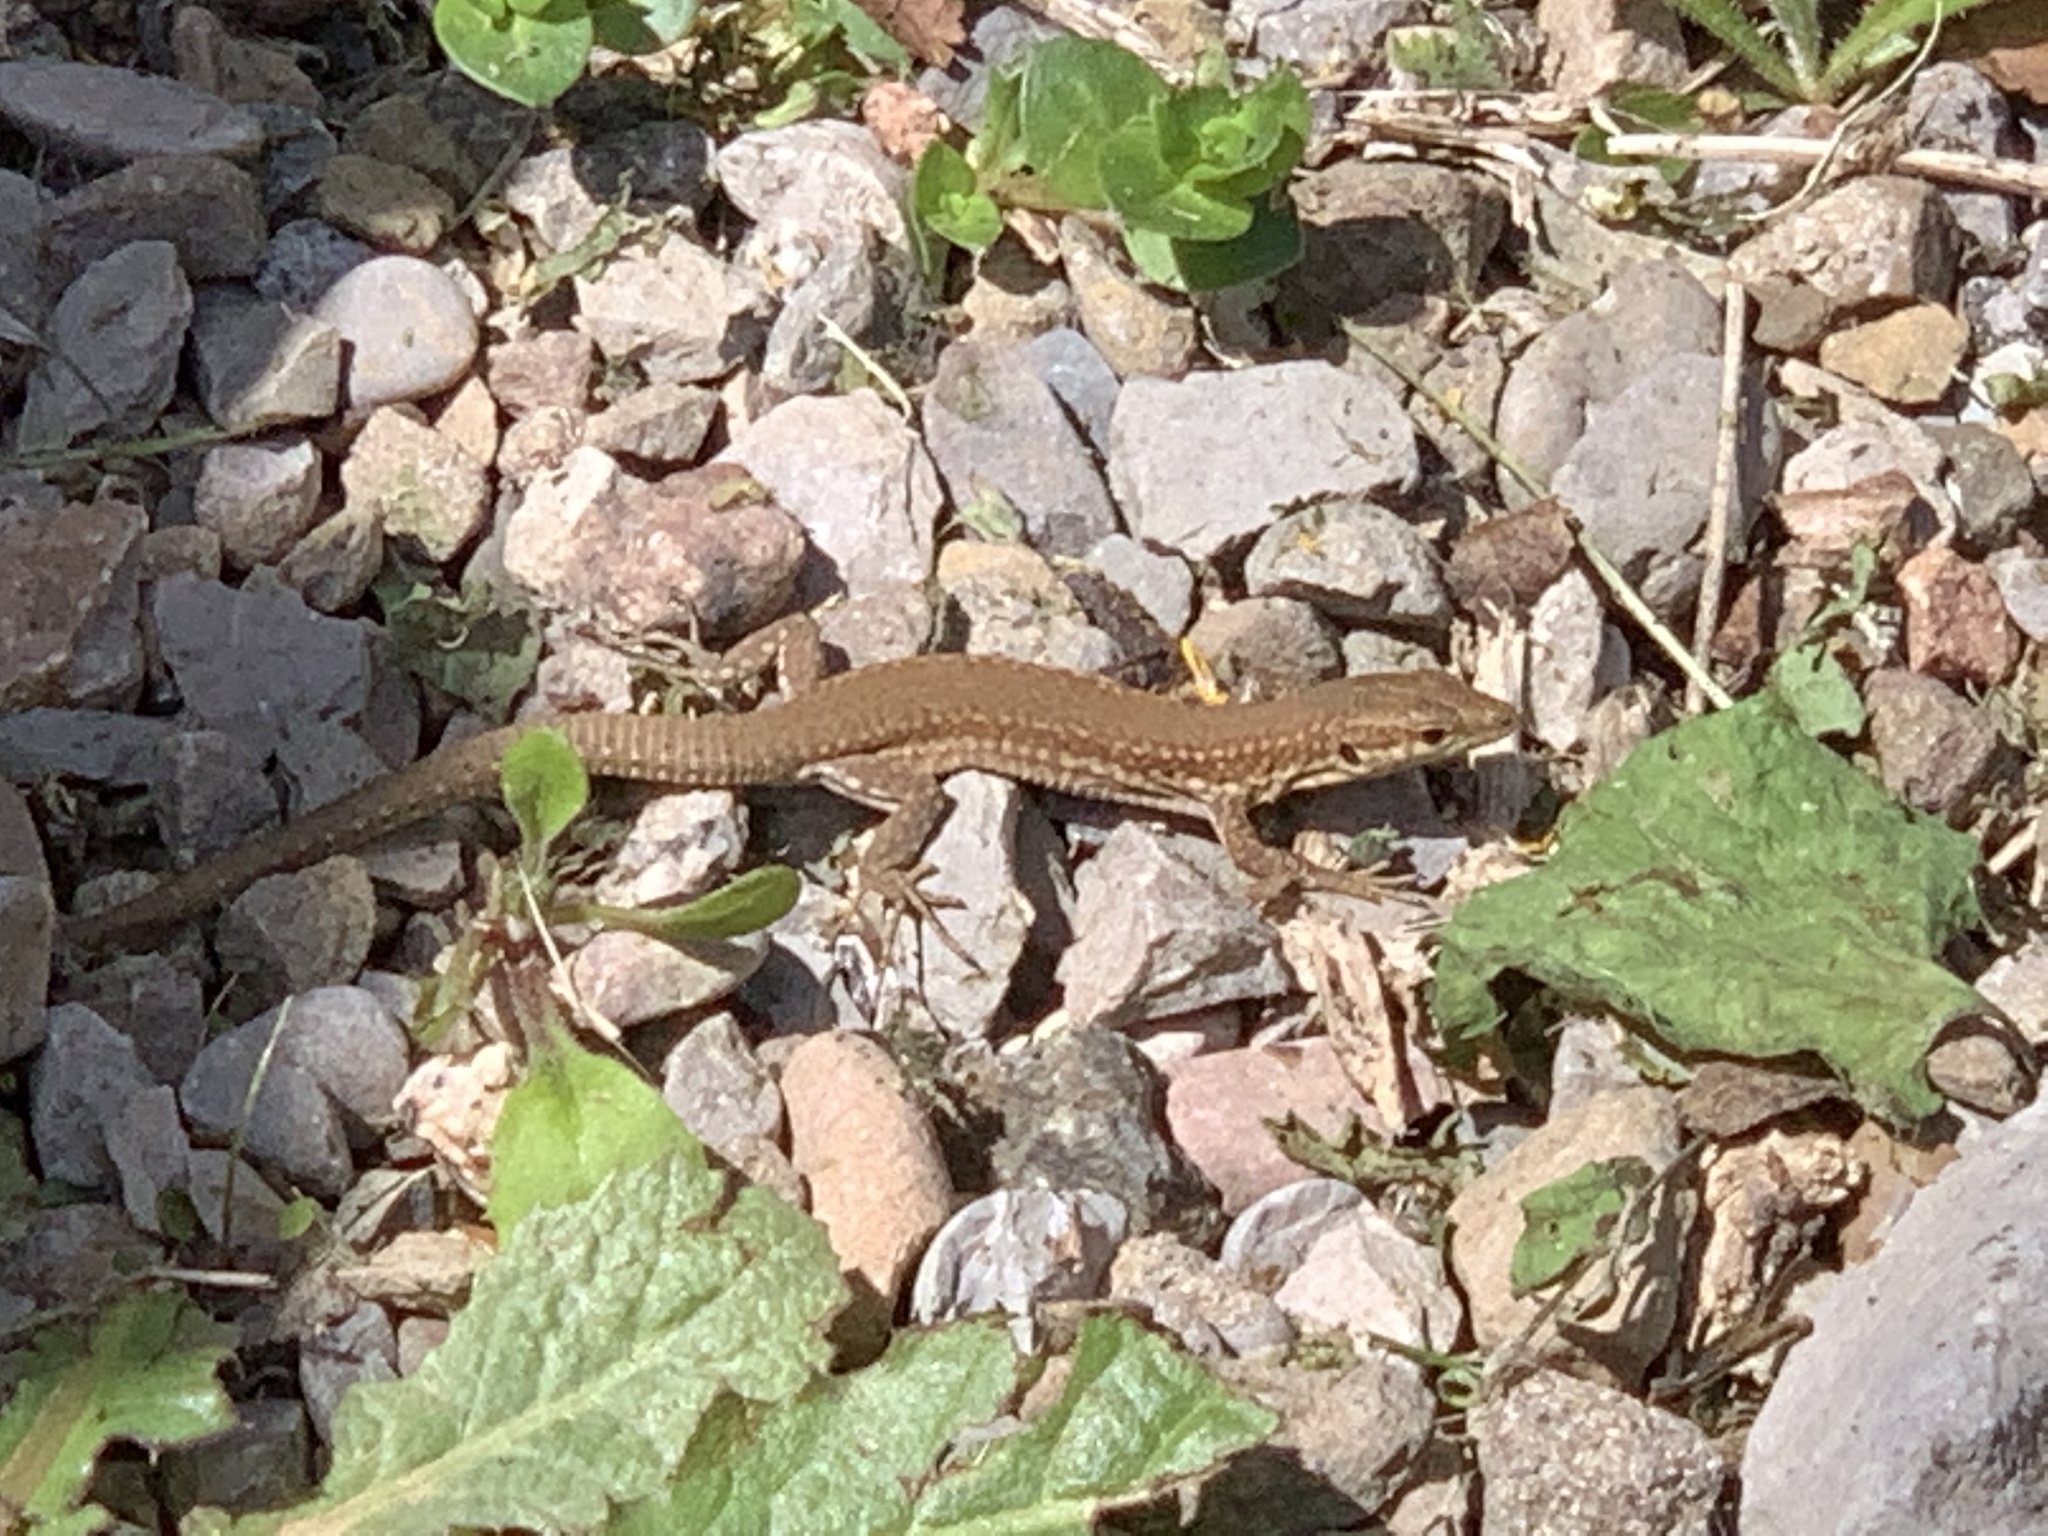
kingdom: Animalia
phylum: Chordata
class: Squamata
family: Lacertidae
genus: Podarcis
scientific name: Podarcis liolepis
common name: Catalonian wall lizard
